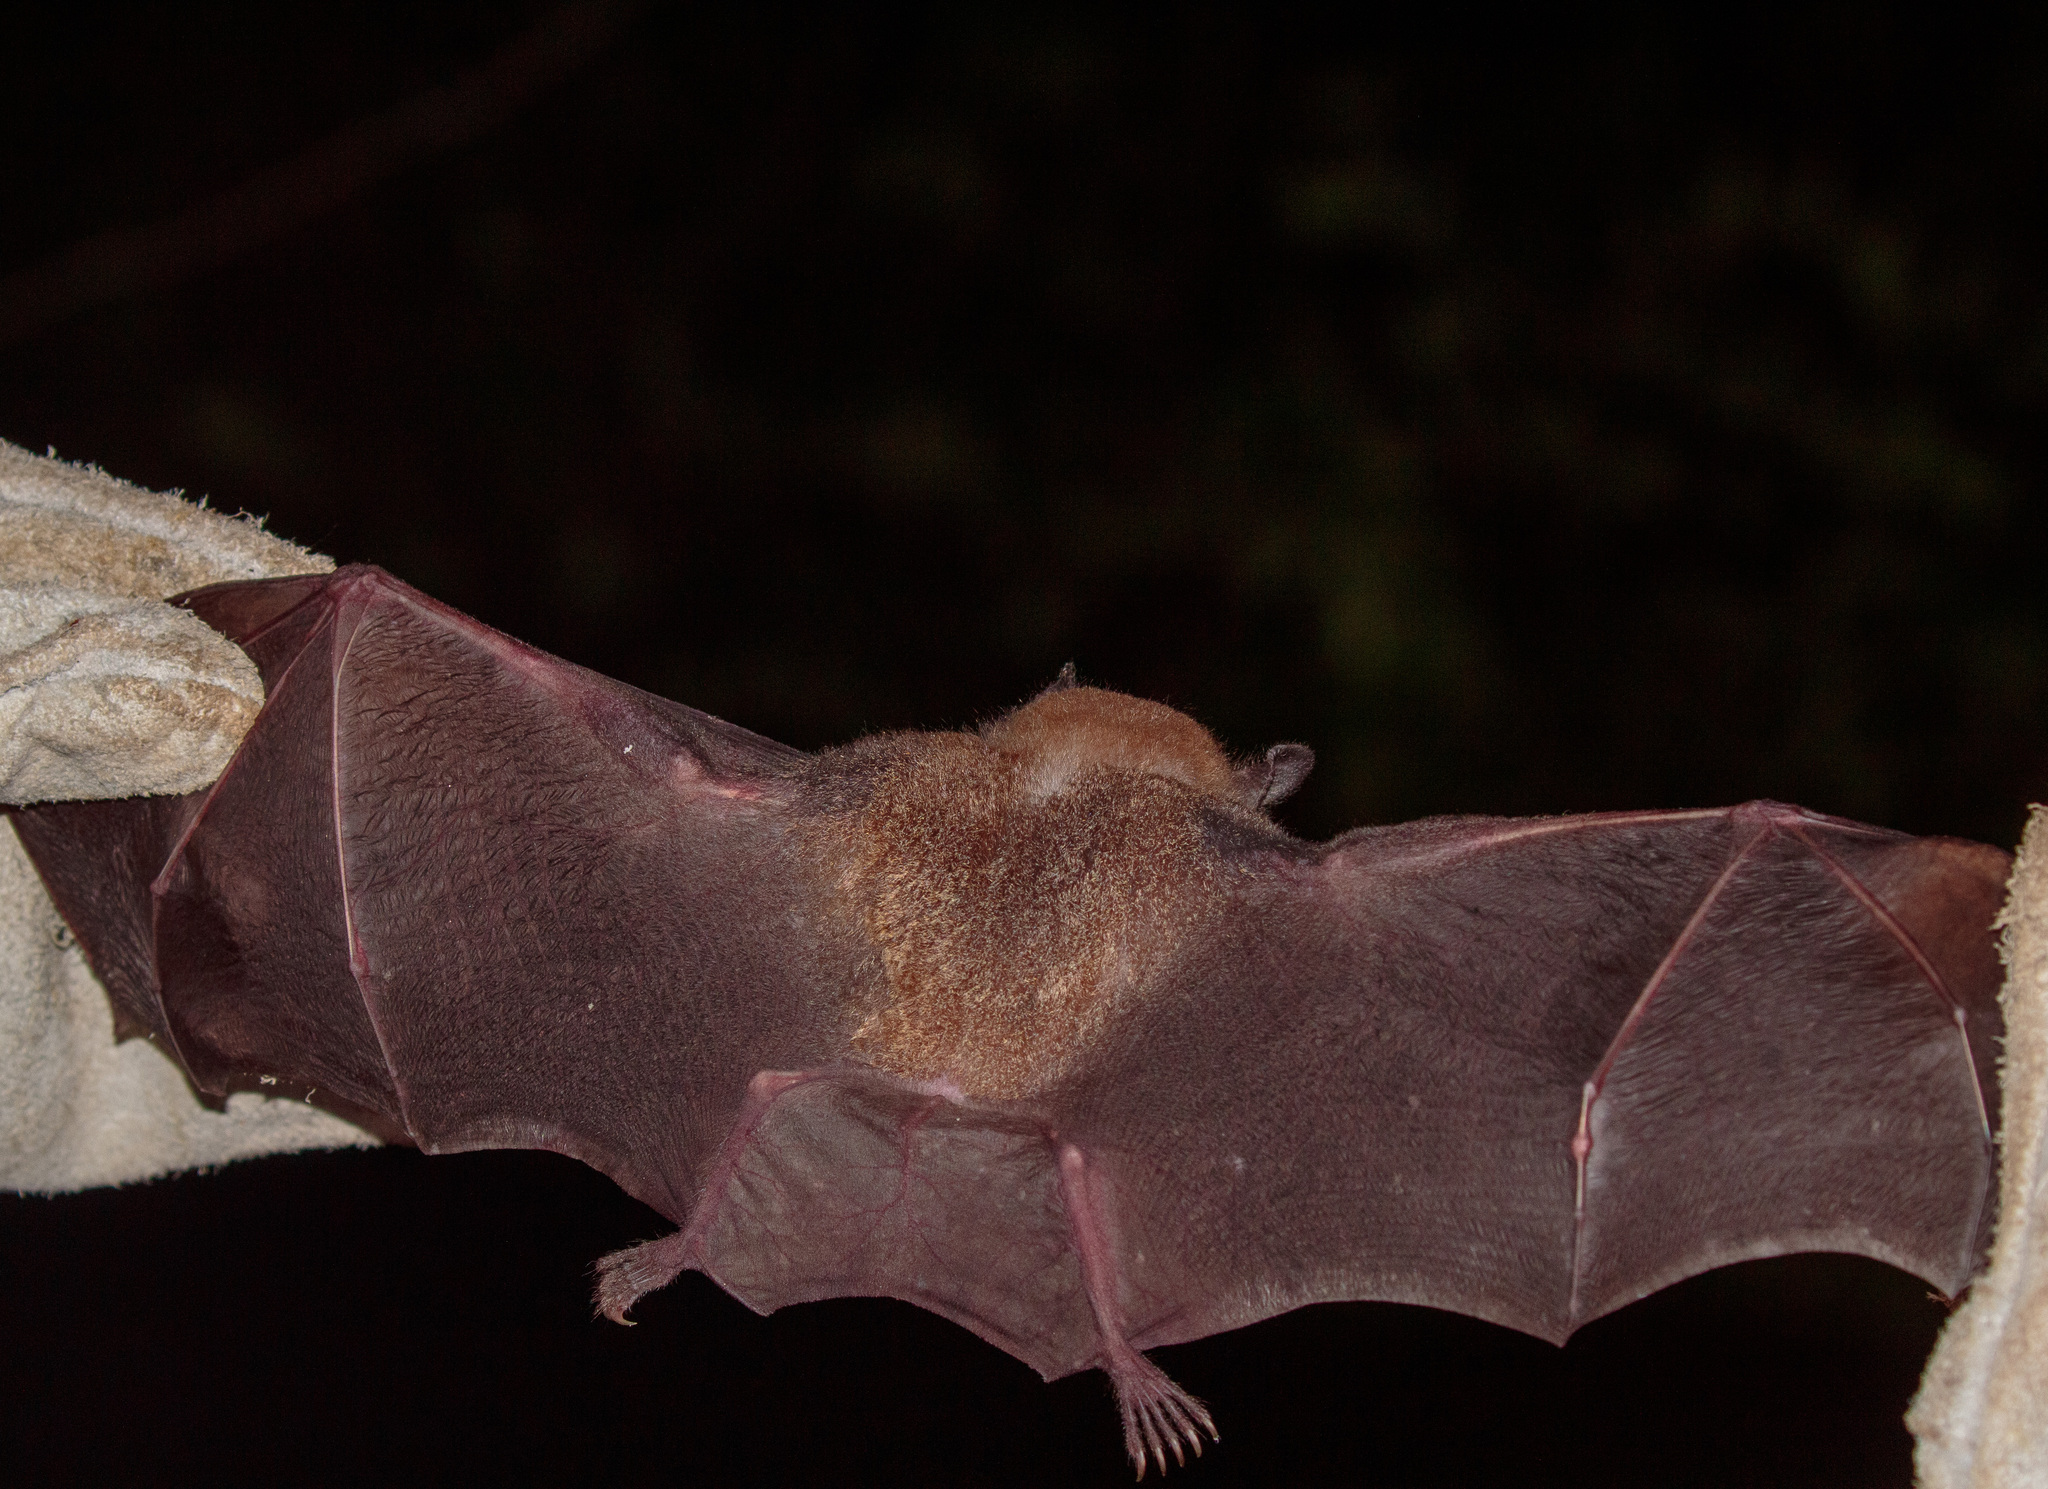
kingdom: Animalia
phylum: Chordata
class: Mammalia
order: Chiroptera
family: Phyllostomidae
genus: Trachops
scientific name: Trachops cirrhosus
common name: Fringe-lipped bat
